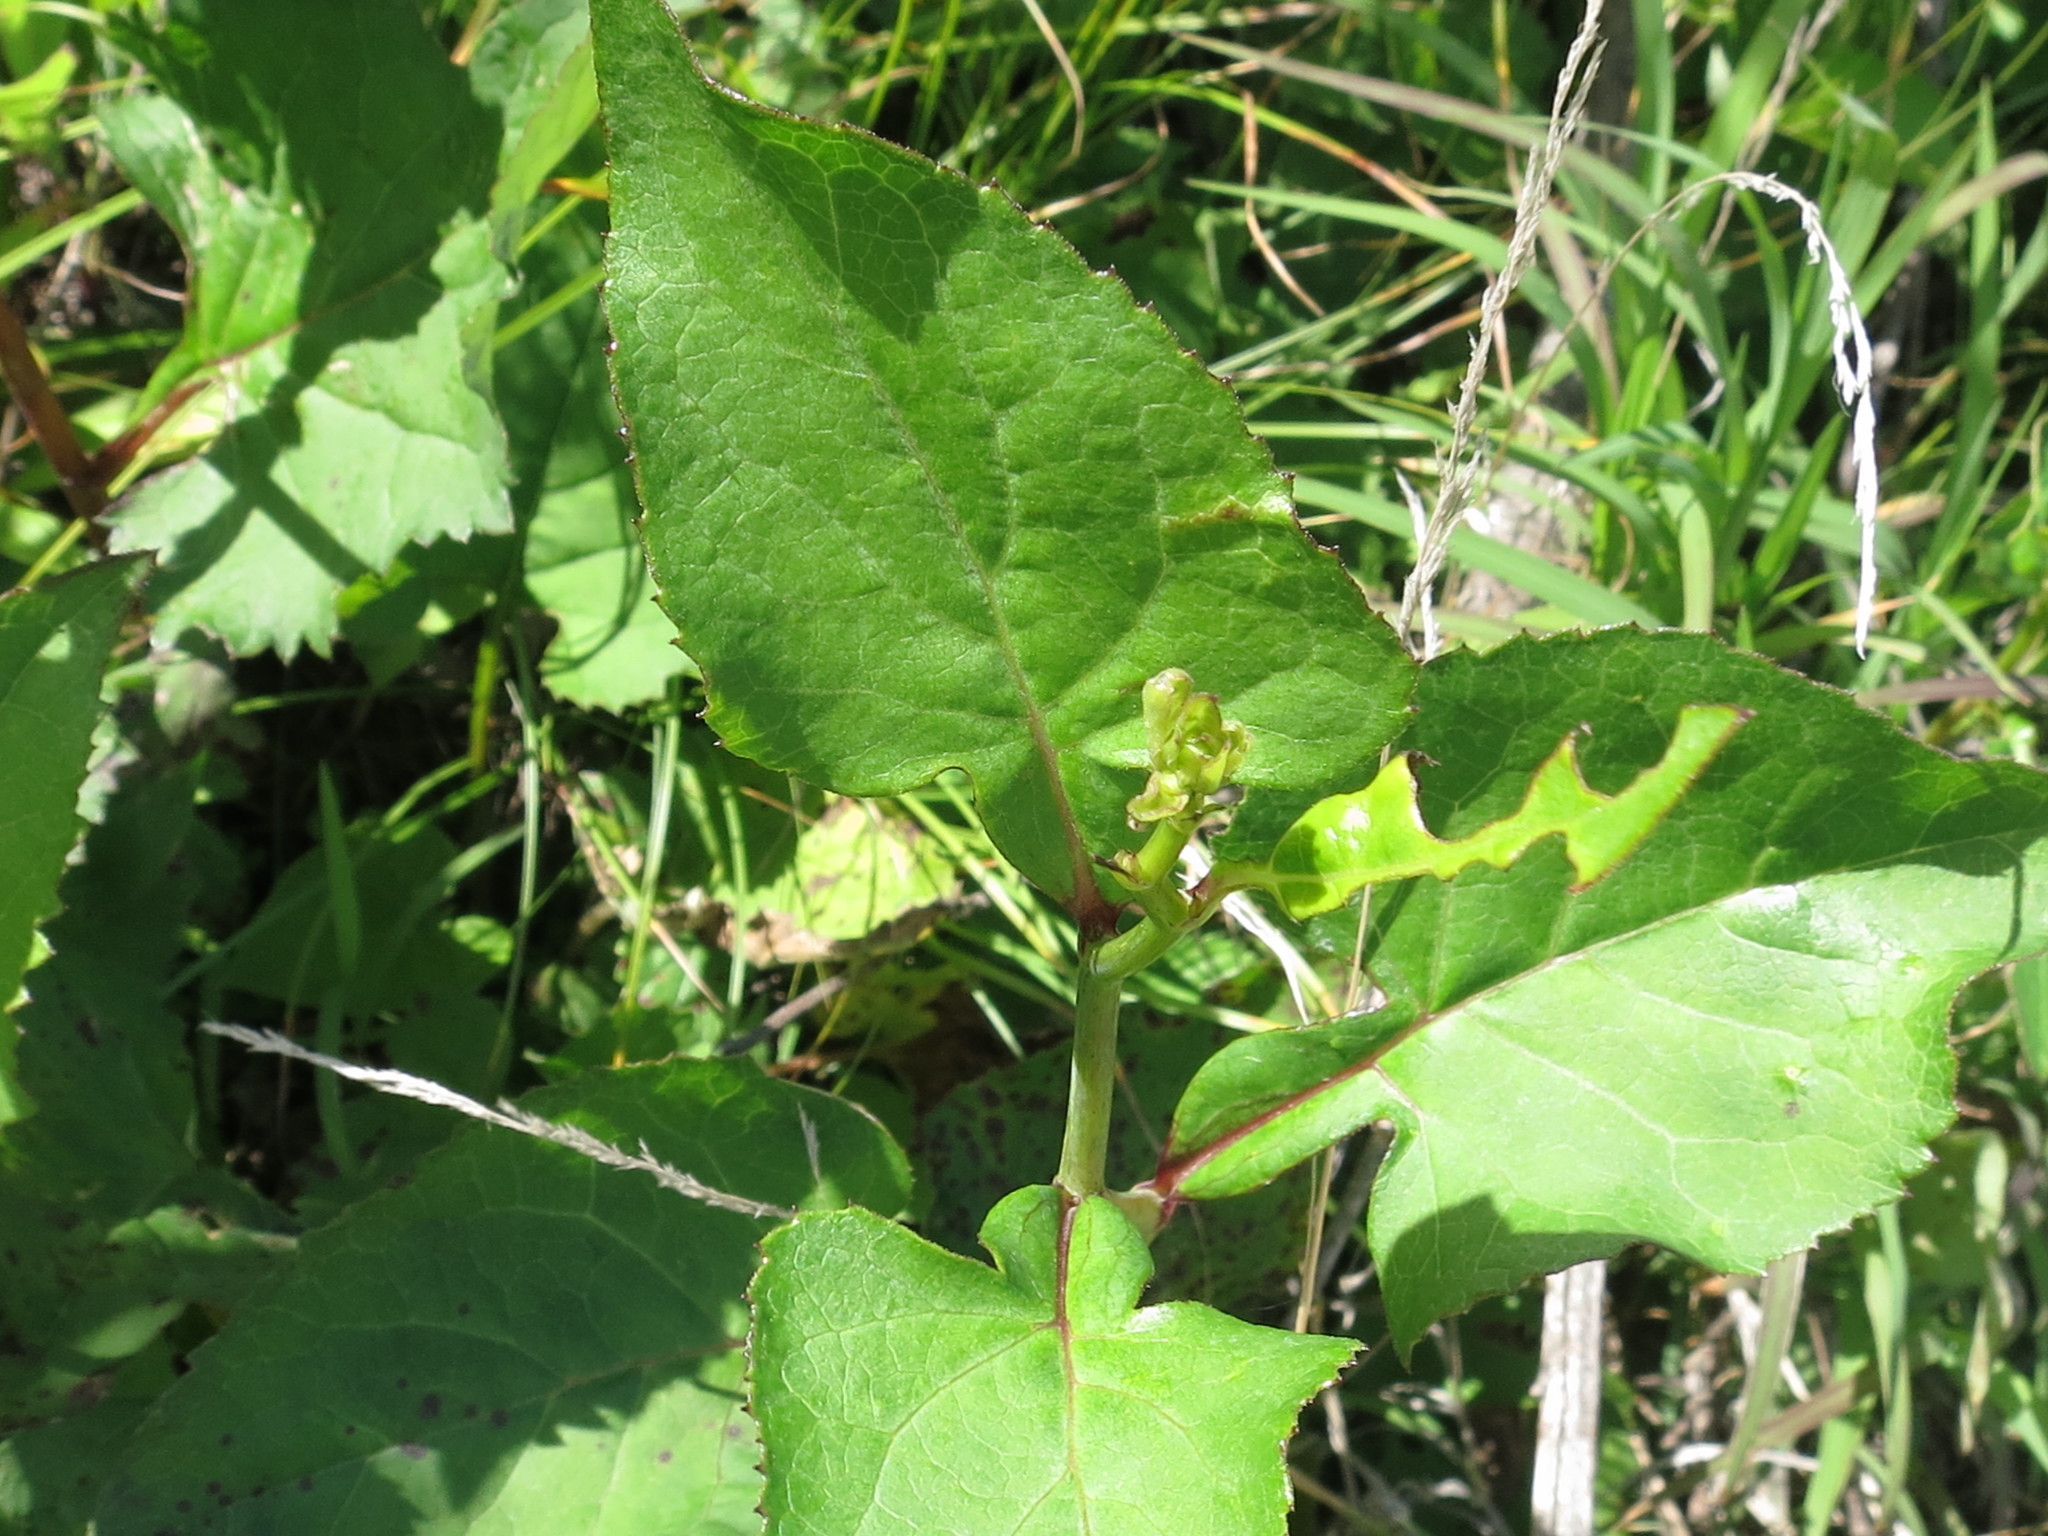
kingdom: Plantae
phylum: Tracheophyta
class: Magnoliopsida
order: Asterales
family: Asteraceae
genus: Aster
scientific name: Aster scaber
